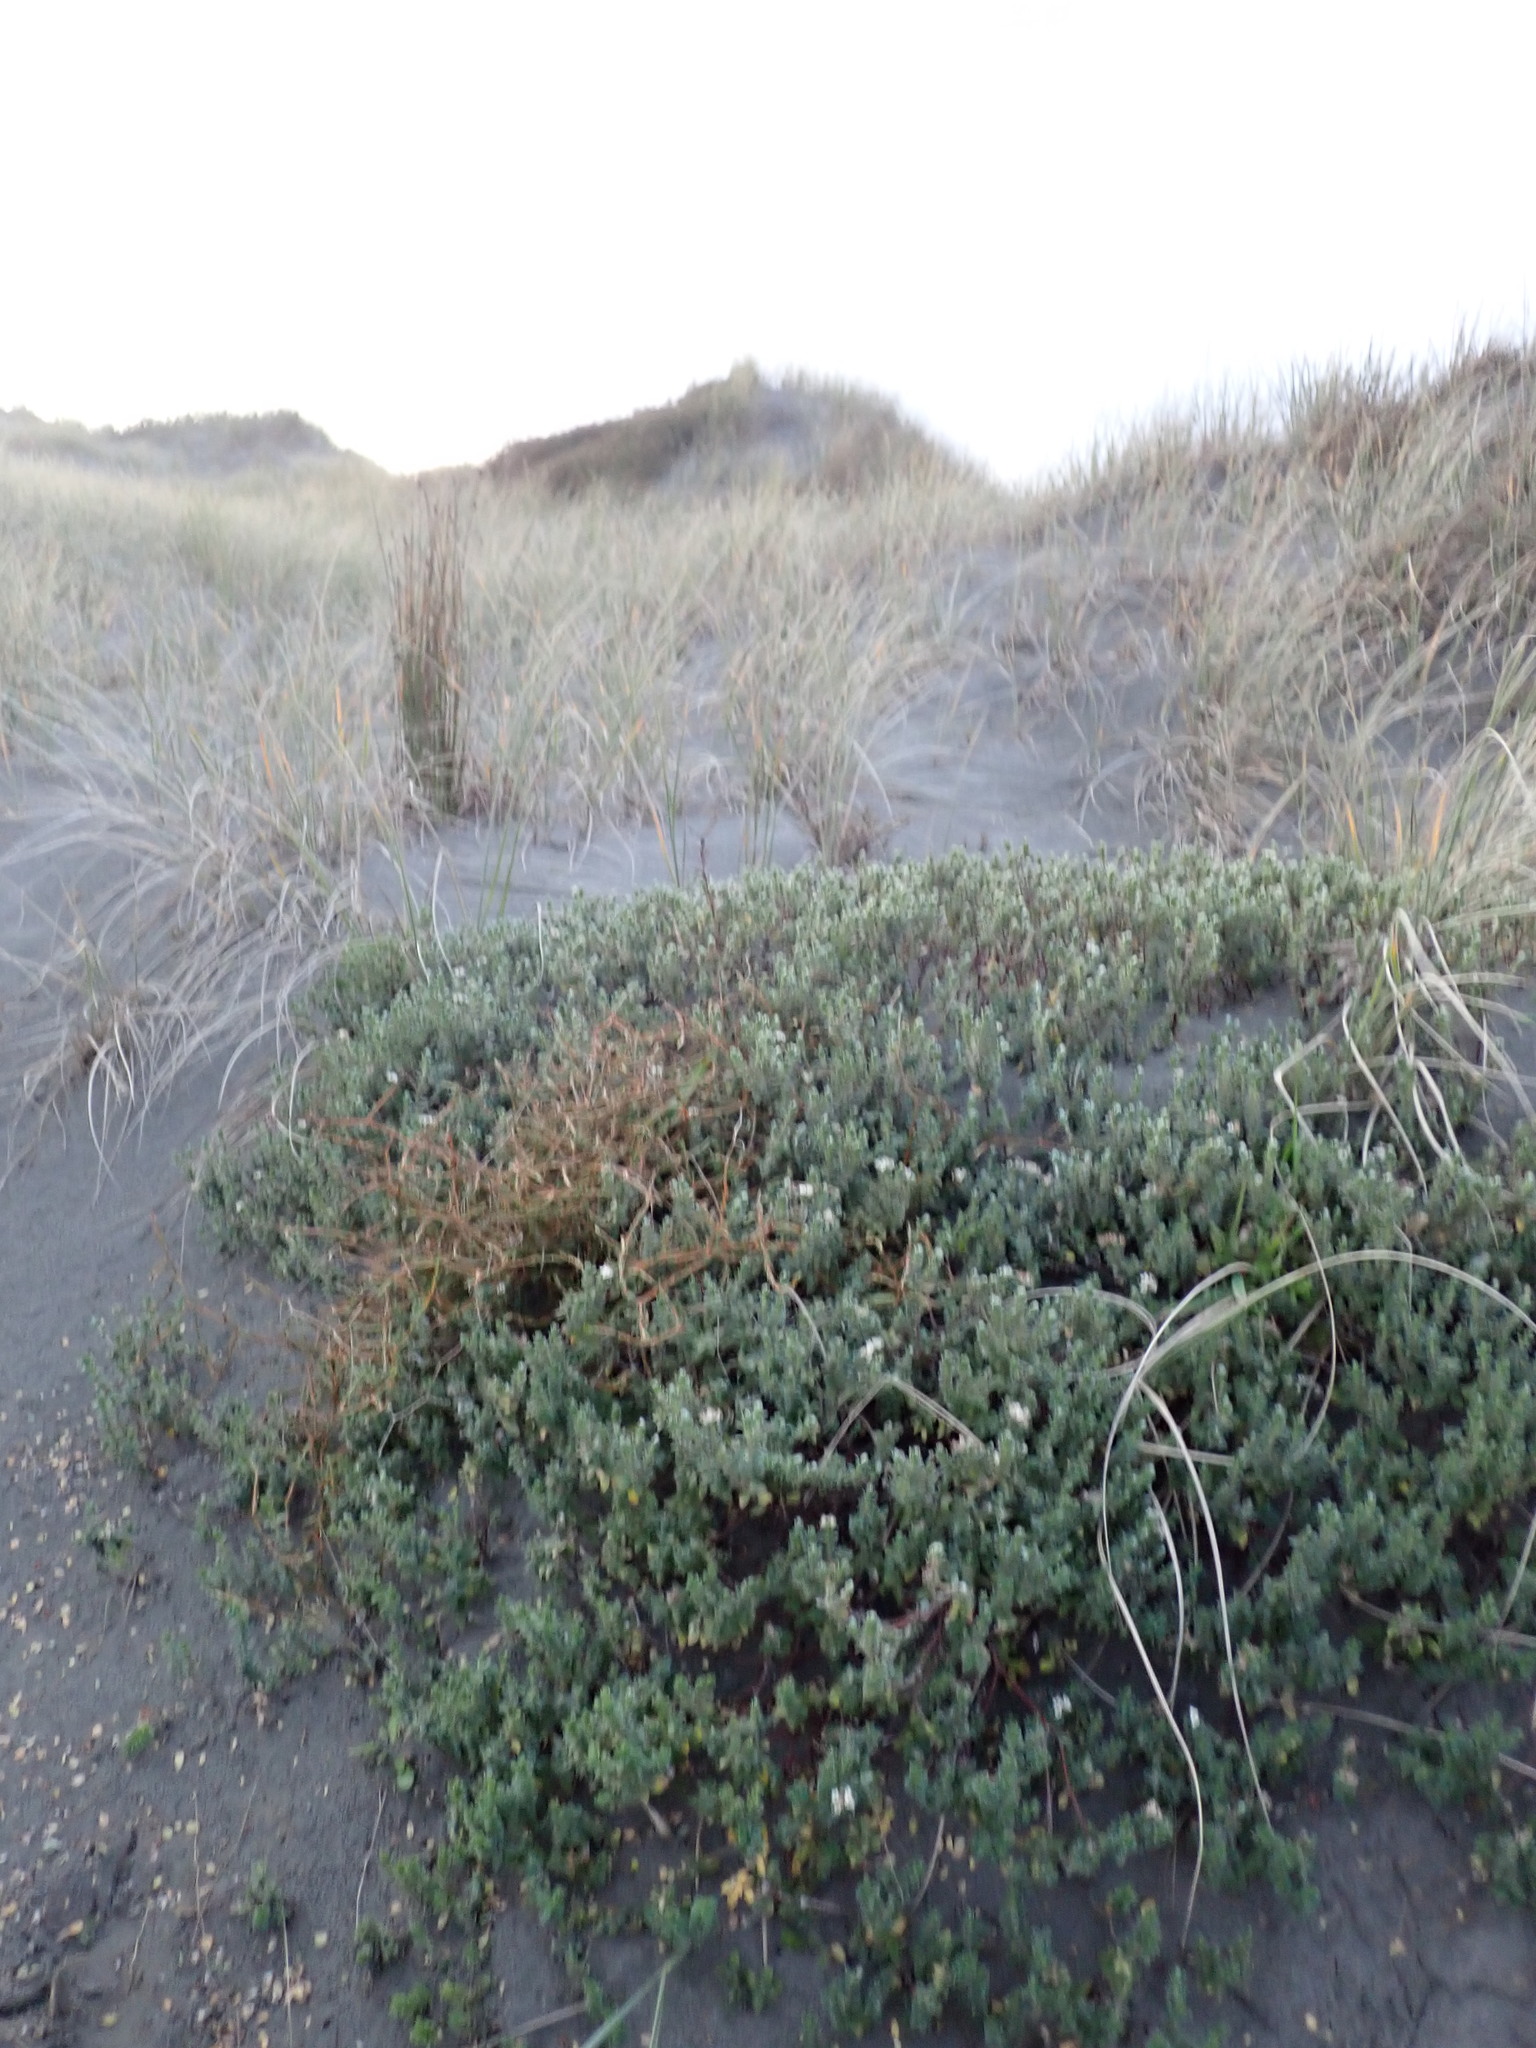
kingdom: Plantae
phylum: Tracheophyta
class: Magnoliopsida
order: Malvales
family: Thymelaeaceae
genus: Pimelea
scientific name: Pimelea villosa
